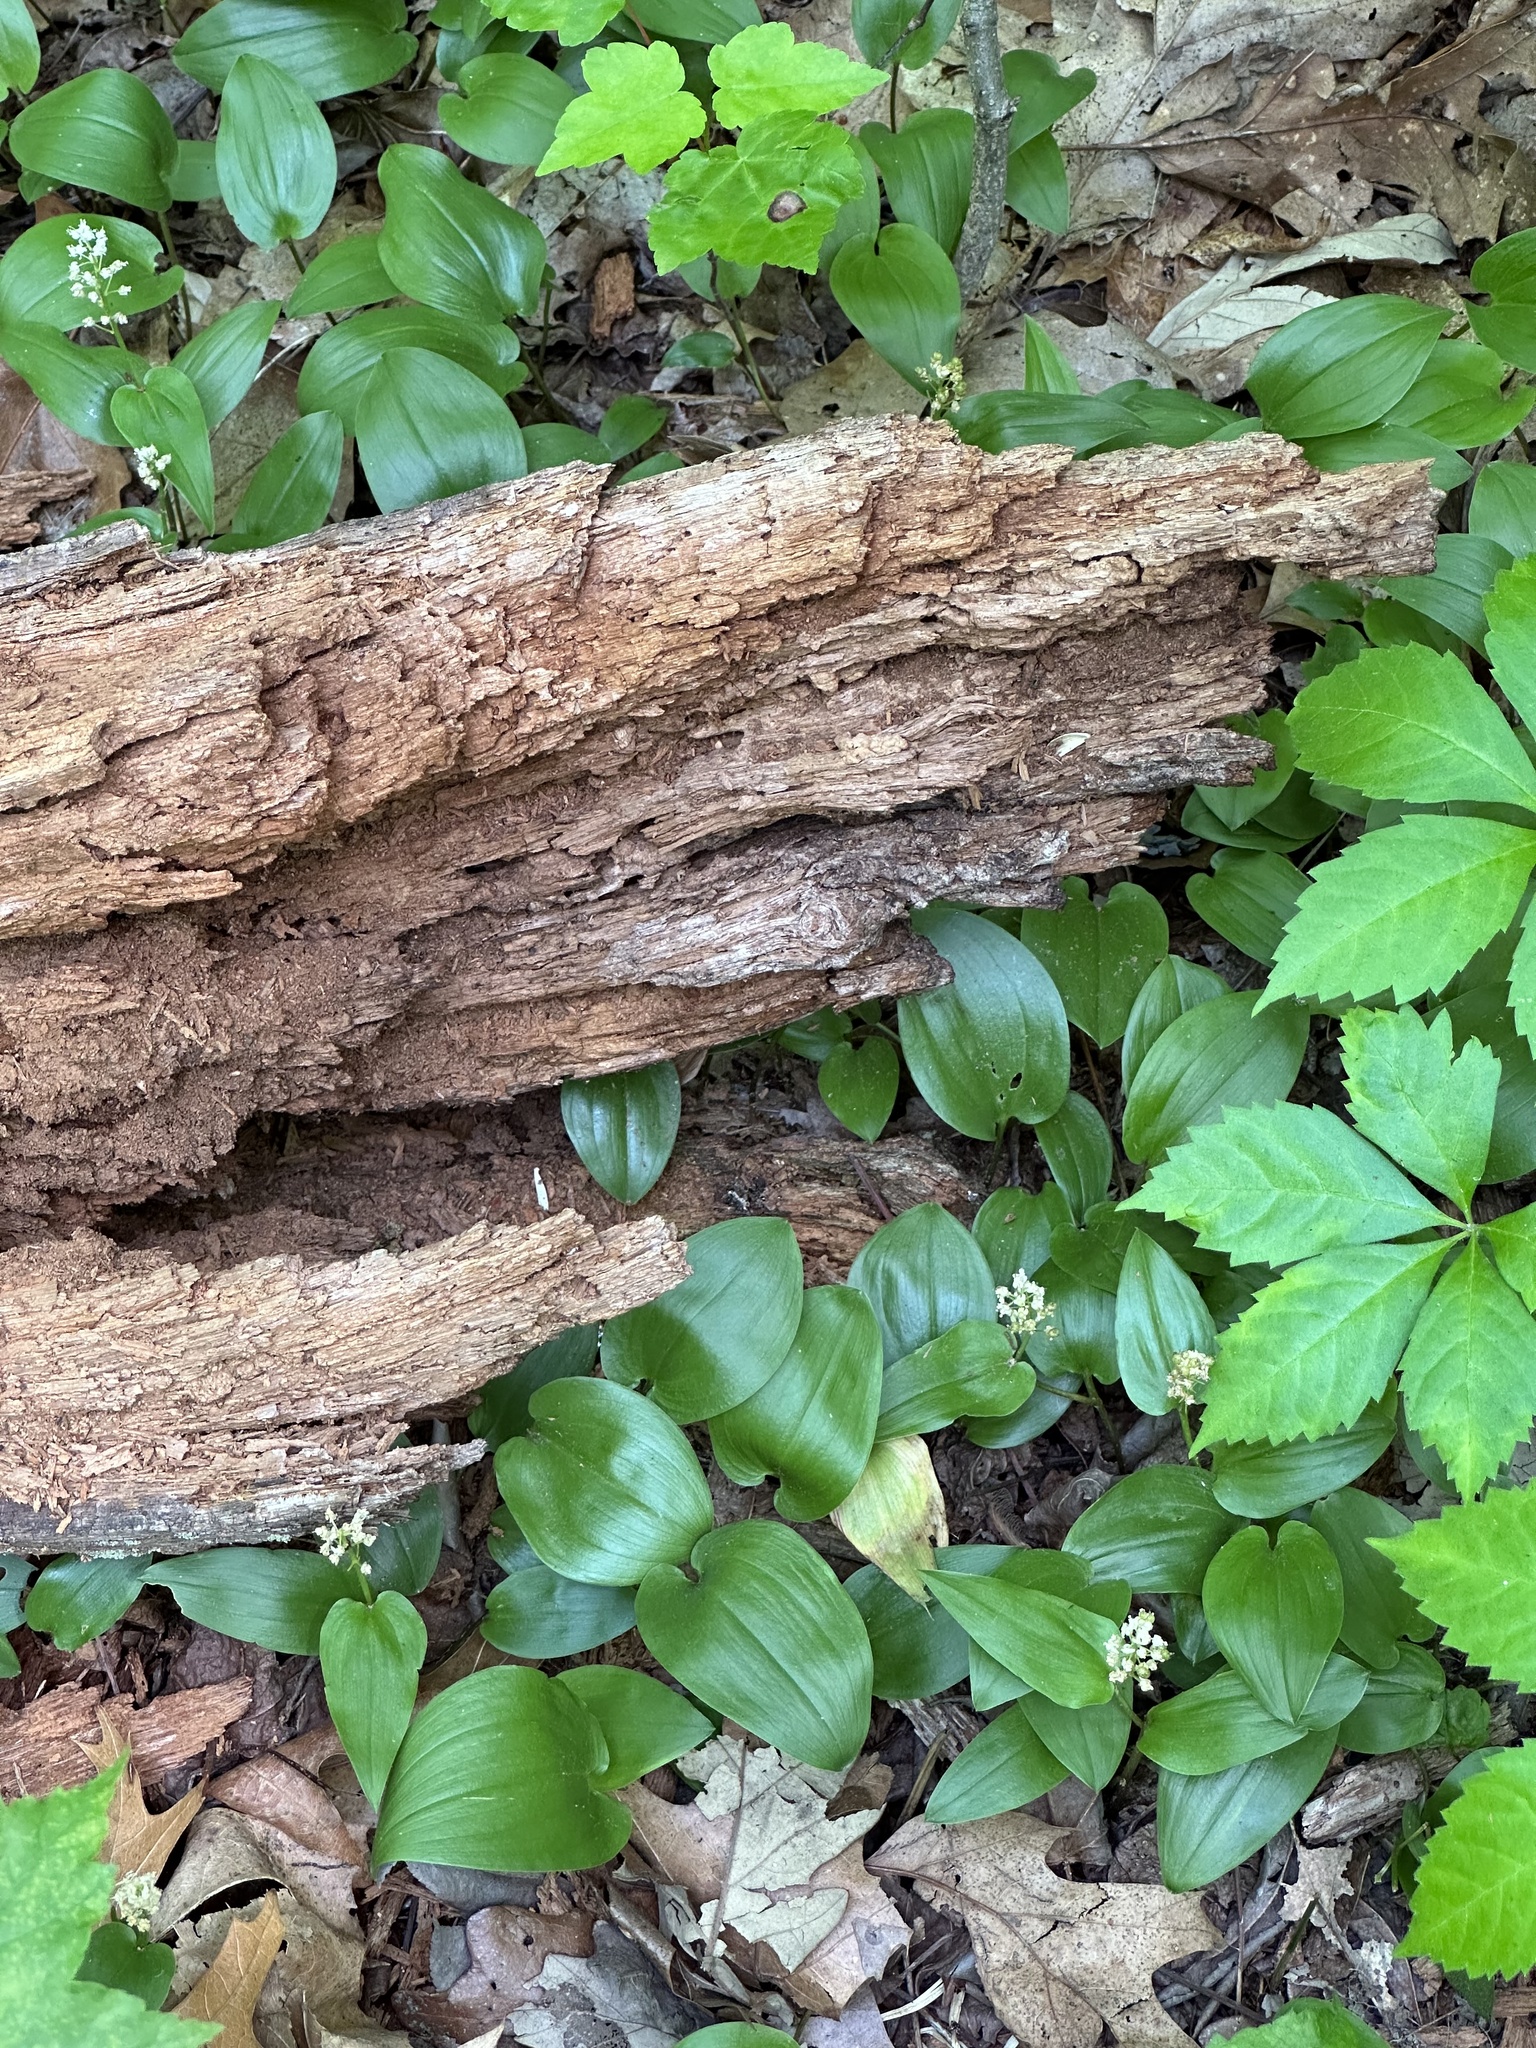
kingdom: Plantae
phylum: Tracheophyta
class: Liliopsida
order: Asparagales
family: Asparagaceae
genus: Maianthemum
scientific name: Maianthemum canadense
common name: False lily-of-the-valley
